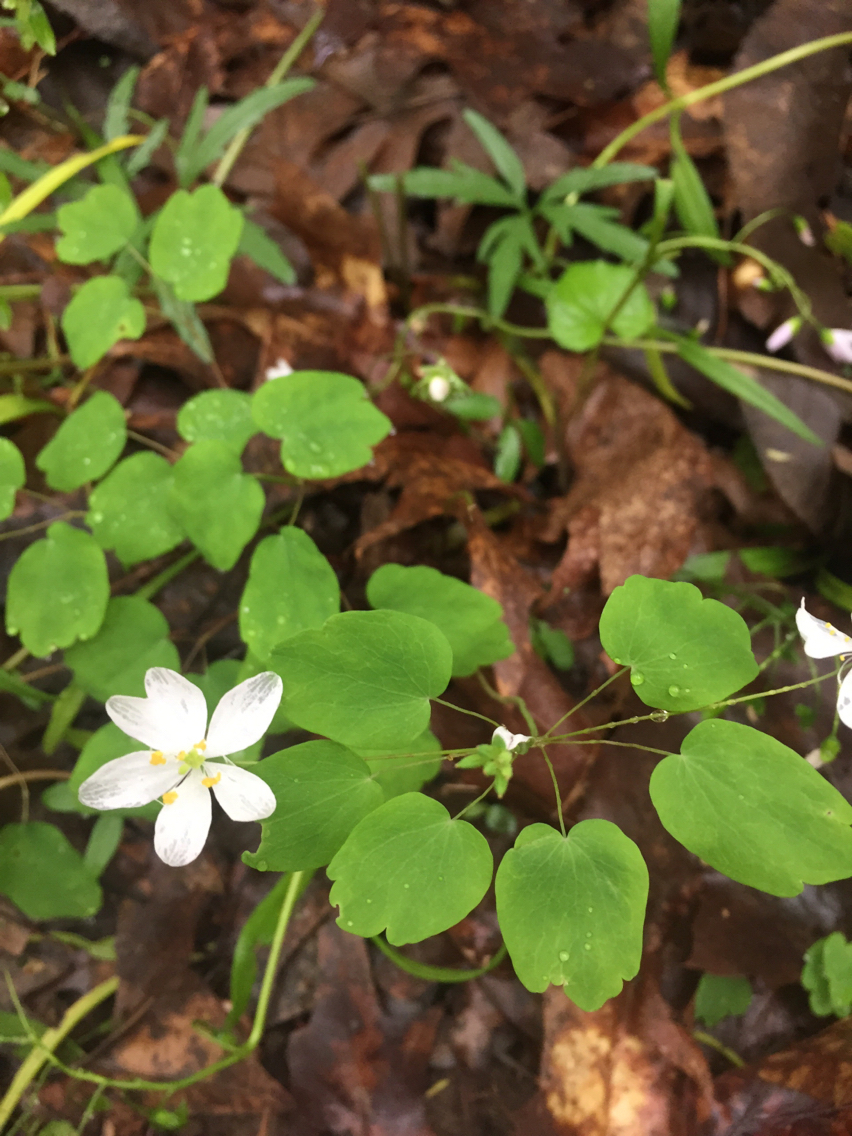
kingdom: Plantae
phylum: Tracheophyta
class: Magnoliopsida
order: Ranunculales
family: Ranunculaceae
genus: Thalictrum
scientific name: Thalictrum thalictroides
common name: Rue-anemone
